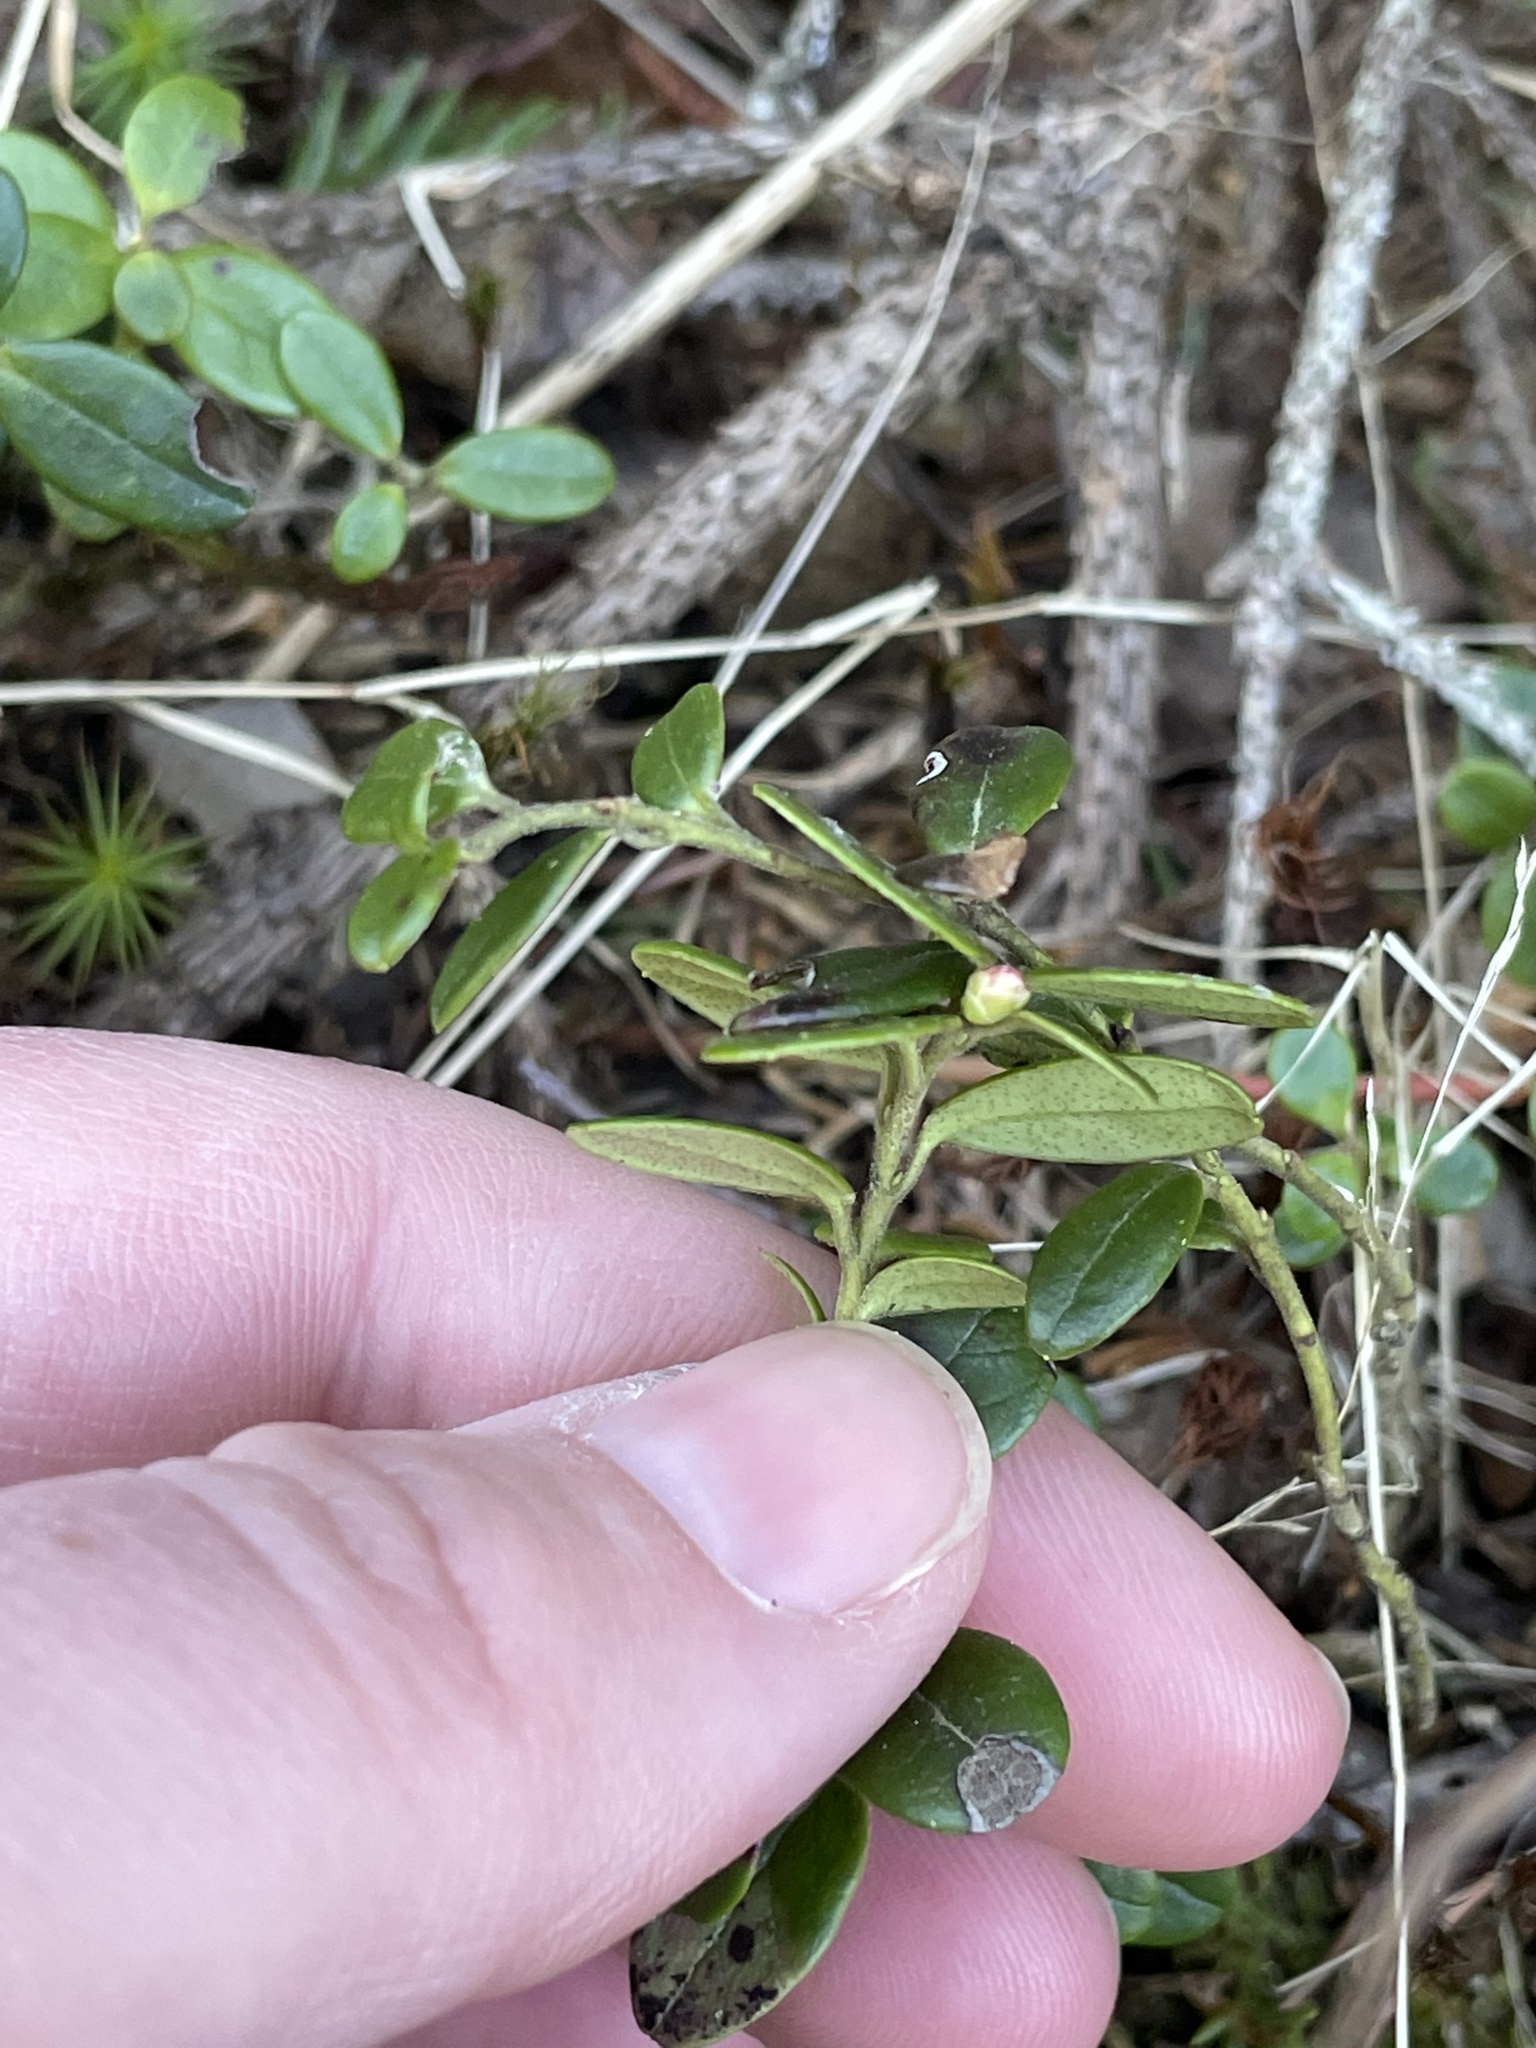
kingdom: Plantae
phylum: Tracheophyta
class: Magnoliopsida
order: Ericales
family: Ericaceae
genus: Vaccinium
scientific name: Vaccinium vitis-idaea
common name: Cowberry
